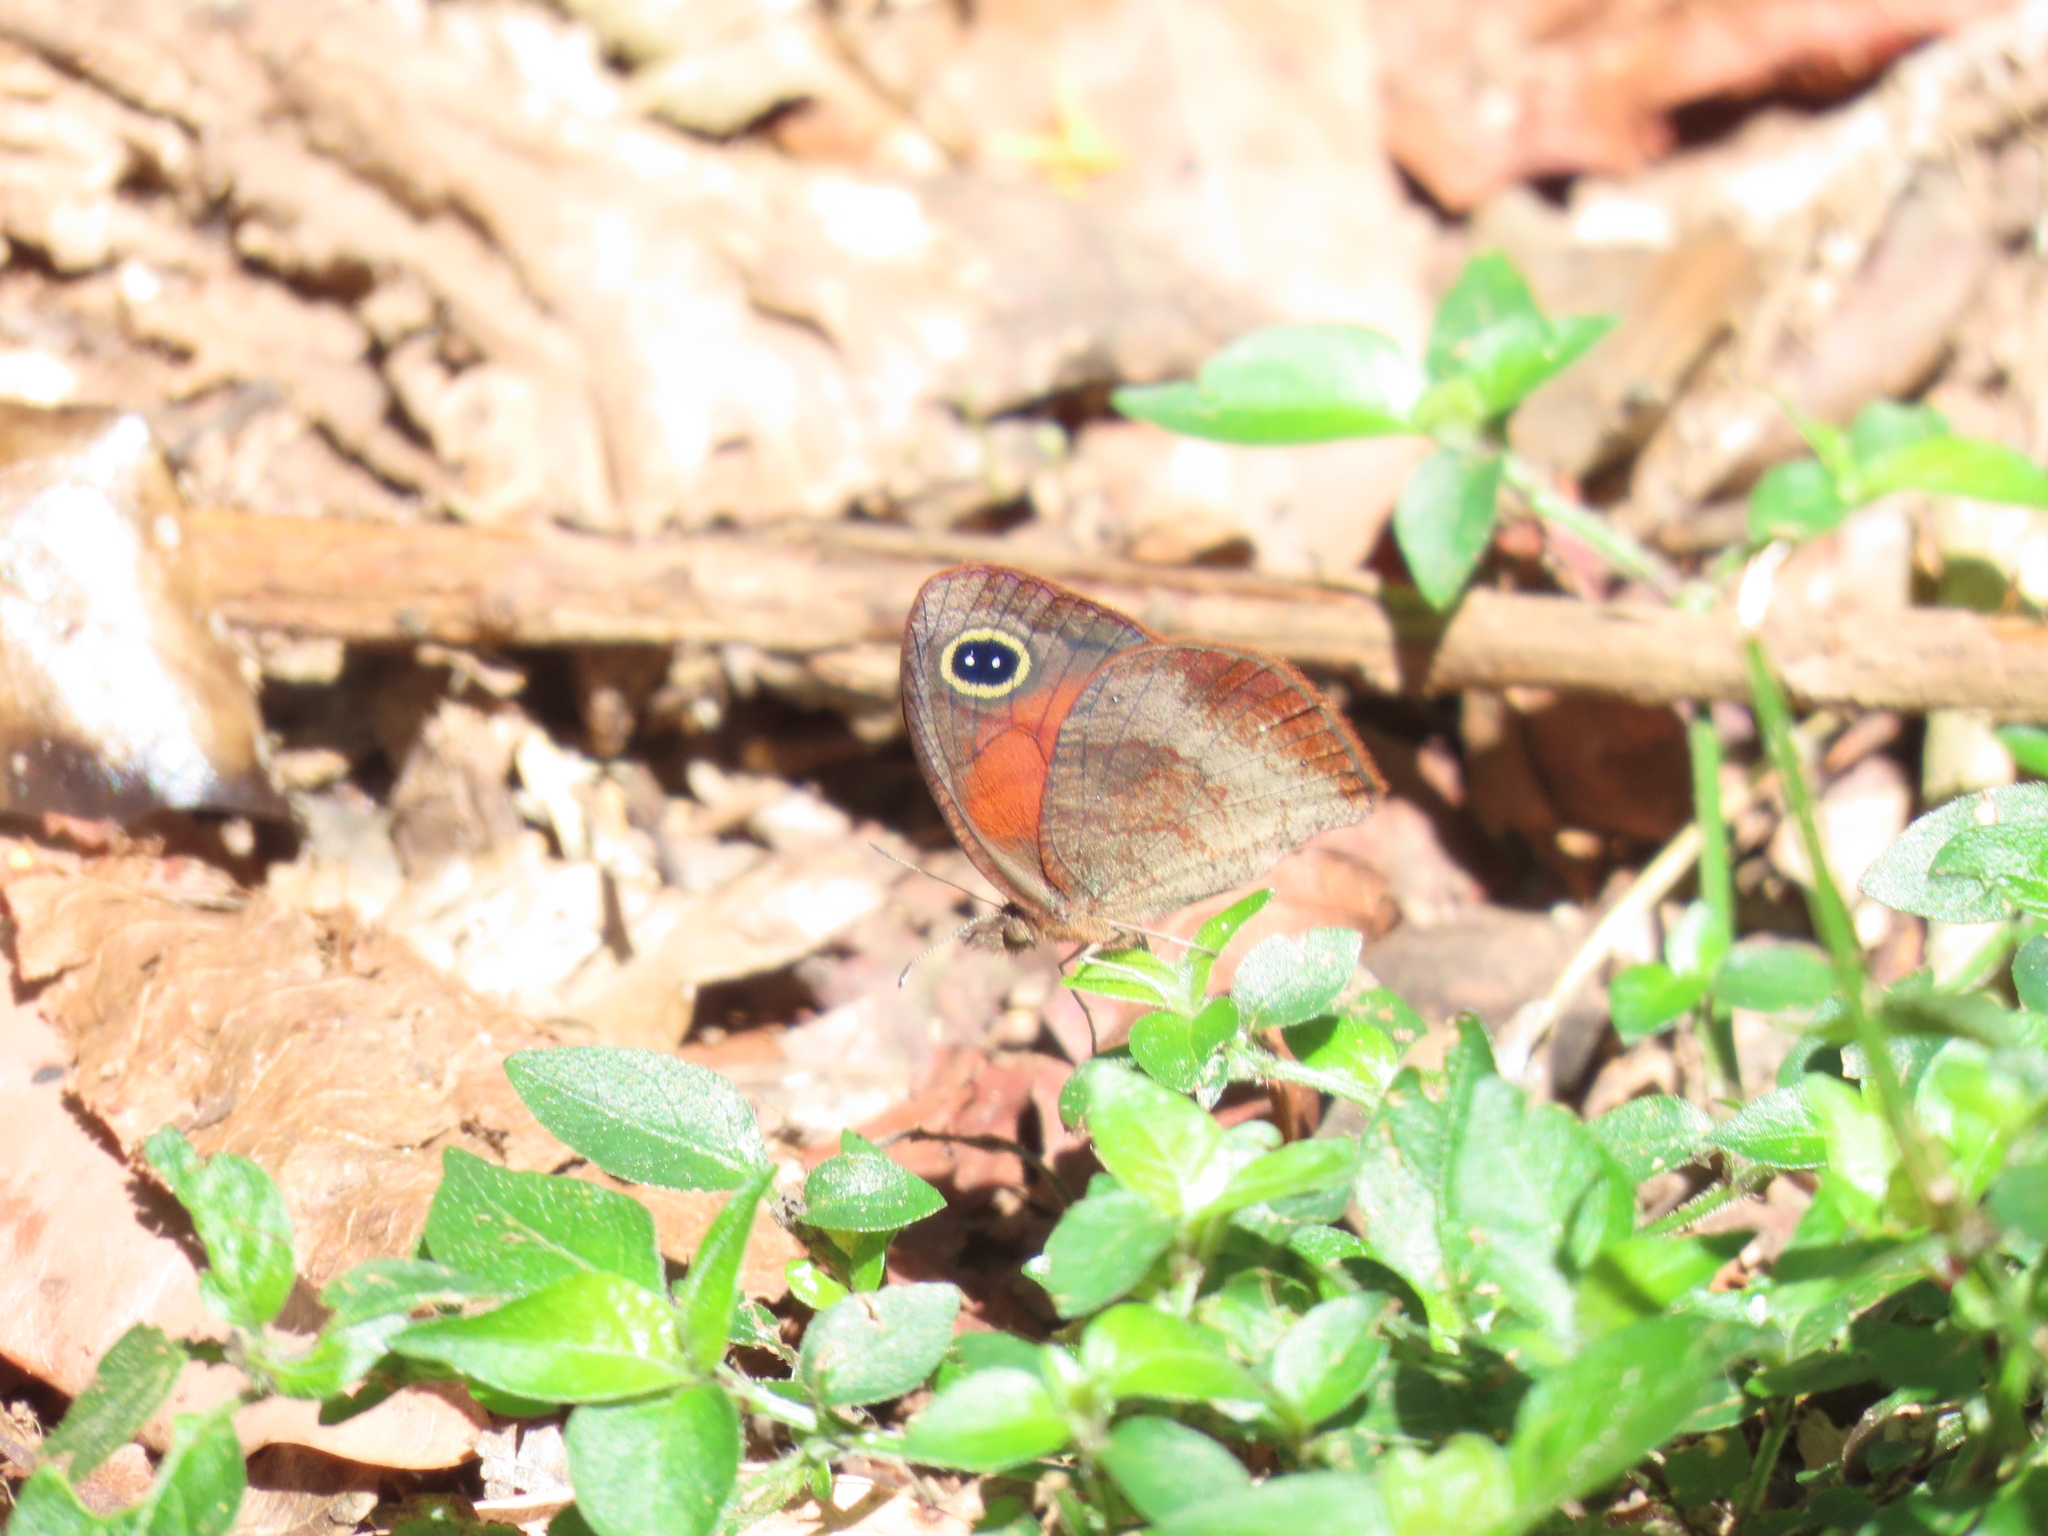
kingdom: Animalia
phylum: Arthropoda
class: Insecta
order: Lepidoptera
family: Nymphalidae
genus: Cassionympha
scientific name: Cassionympha cassius
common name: Rainforest brown
